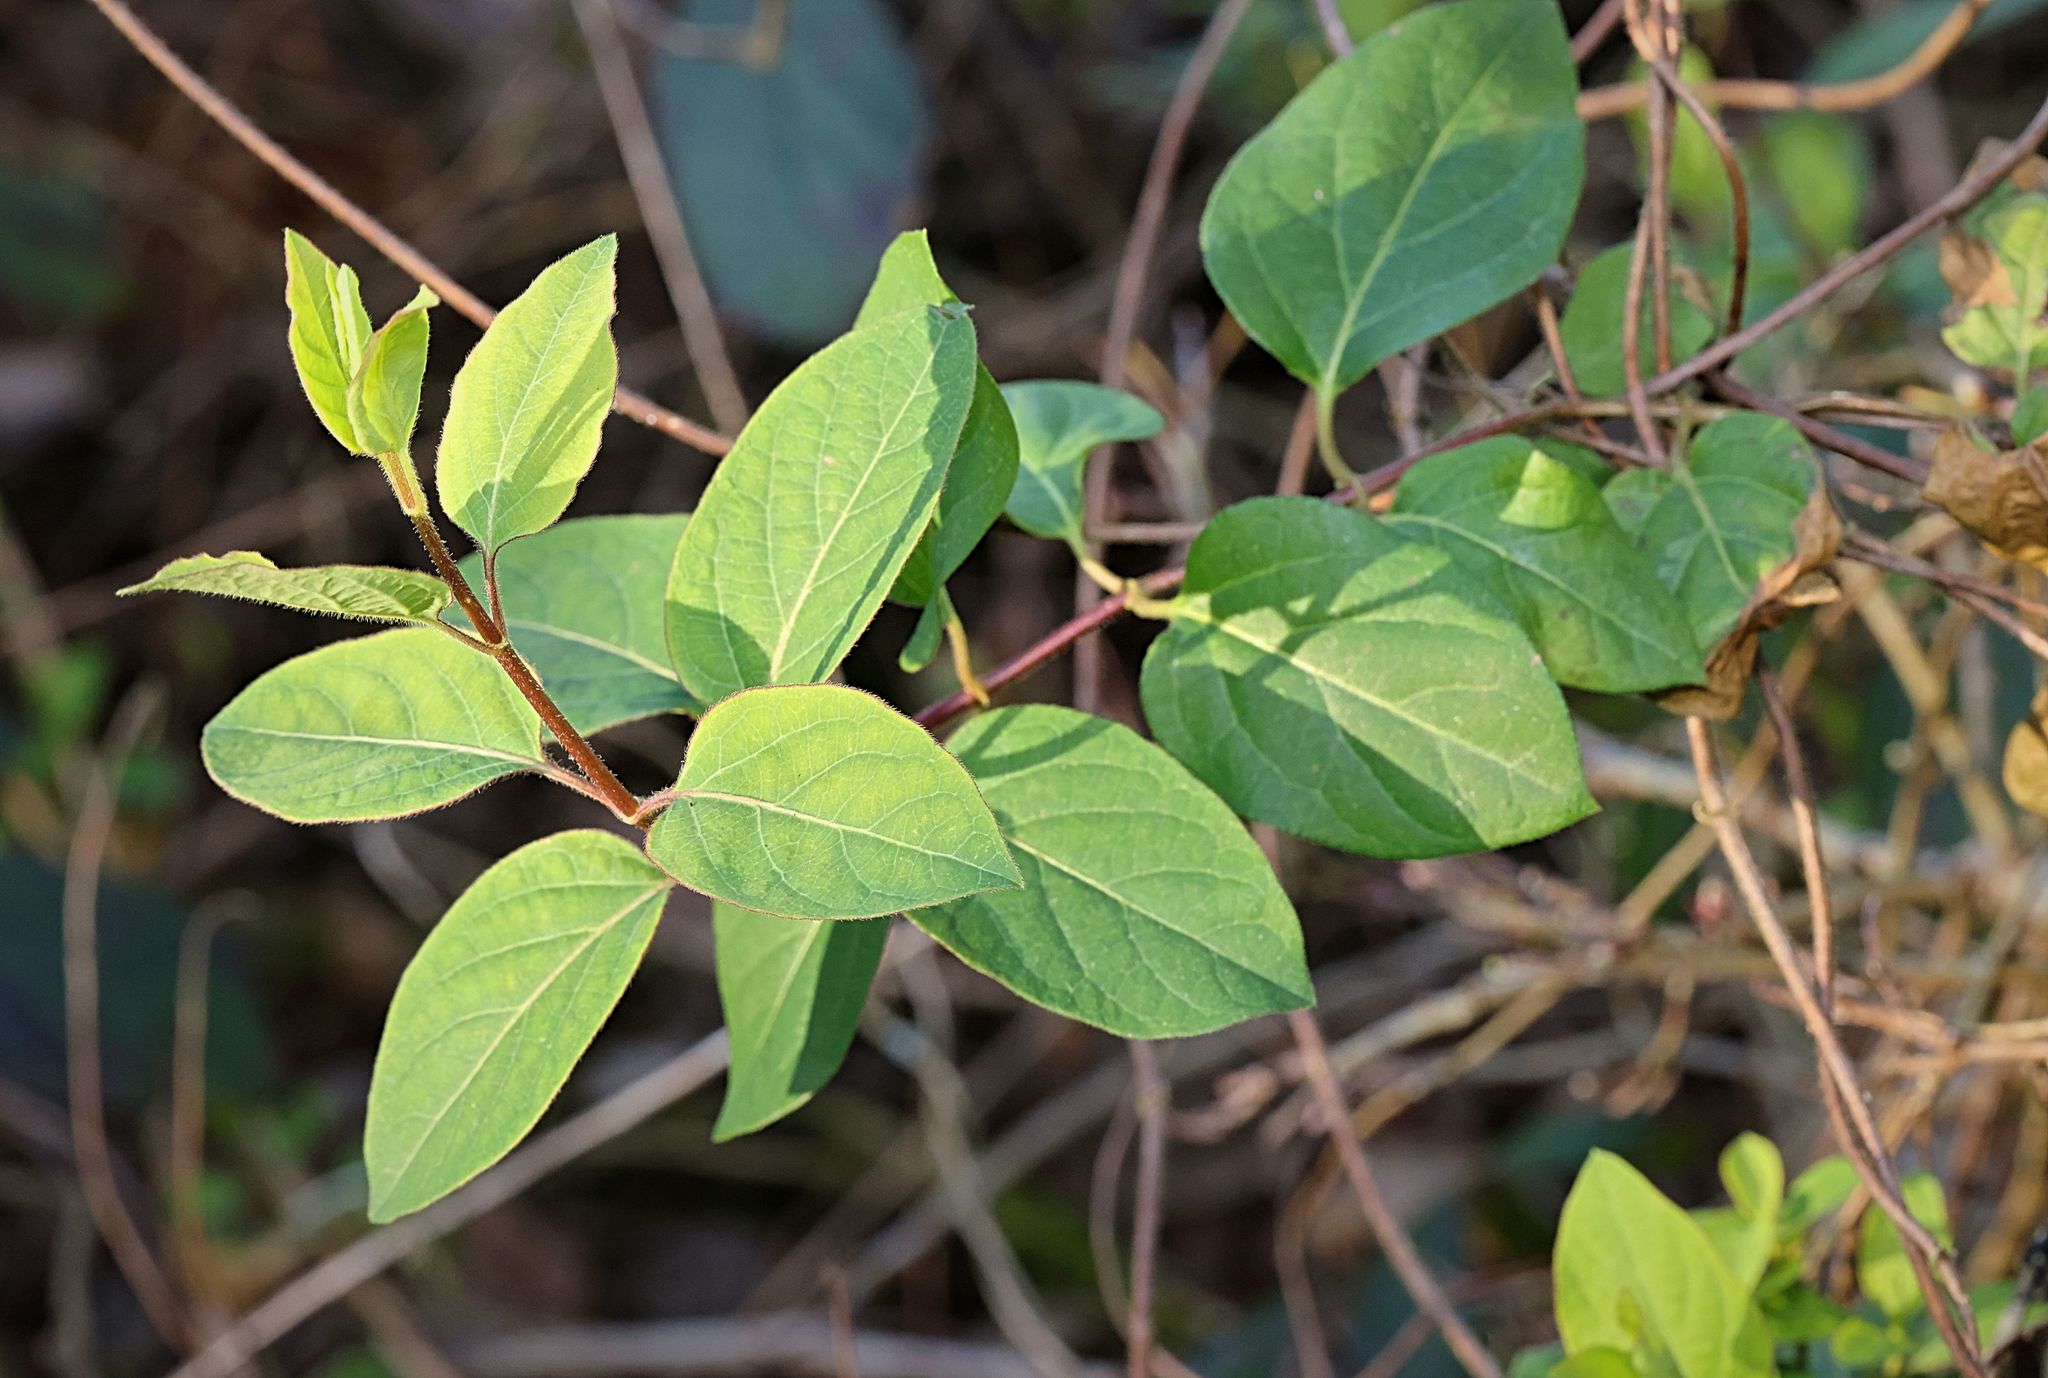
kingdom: Plantae
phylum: Tracheophyta
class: Magnoliopsida
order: Dipsacales
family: Caprifoliaceae
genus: Lonicera
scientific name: Lonicera japonica
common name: Japanese honeysuckle
